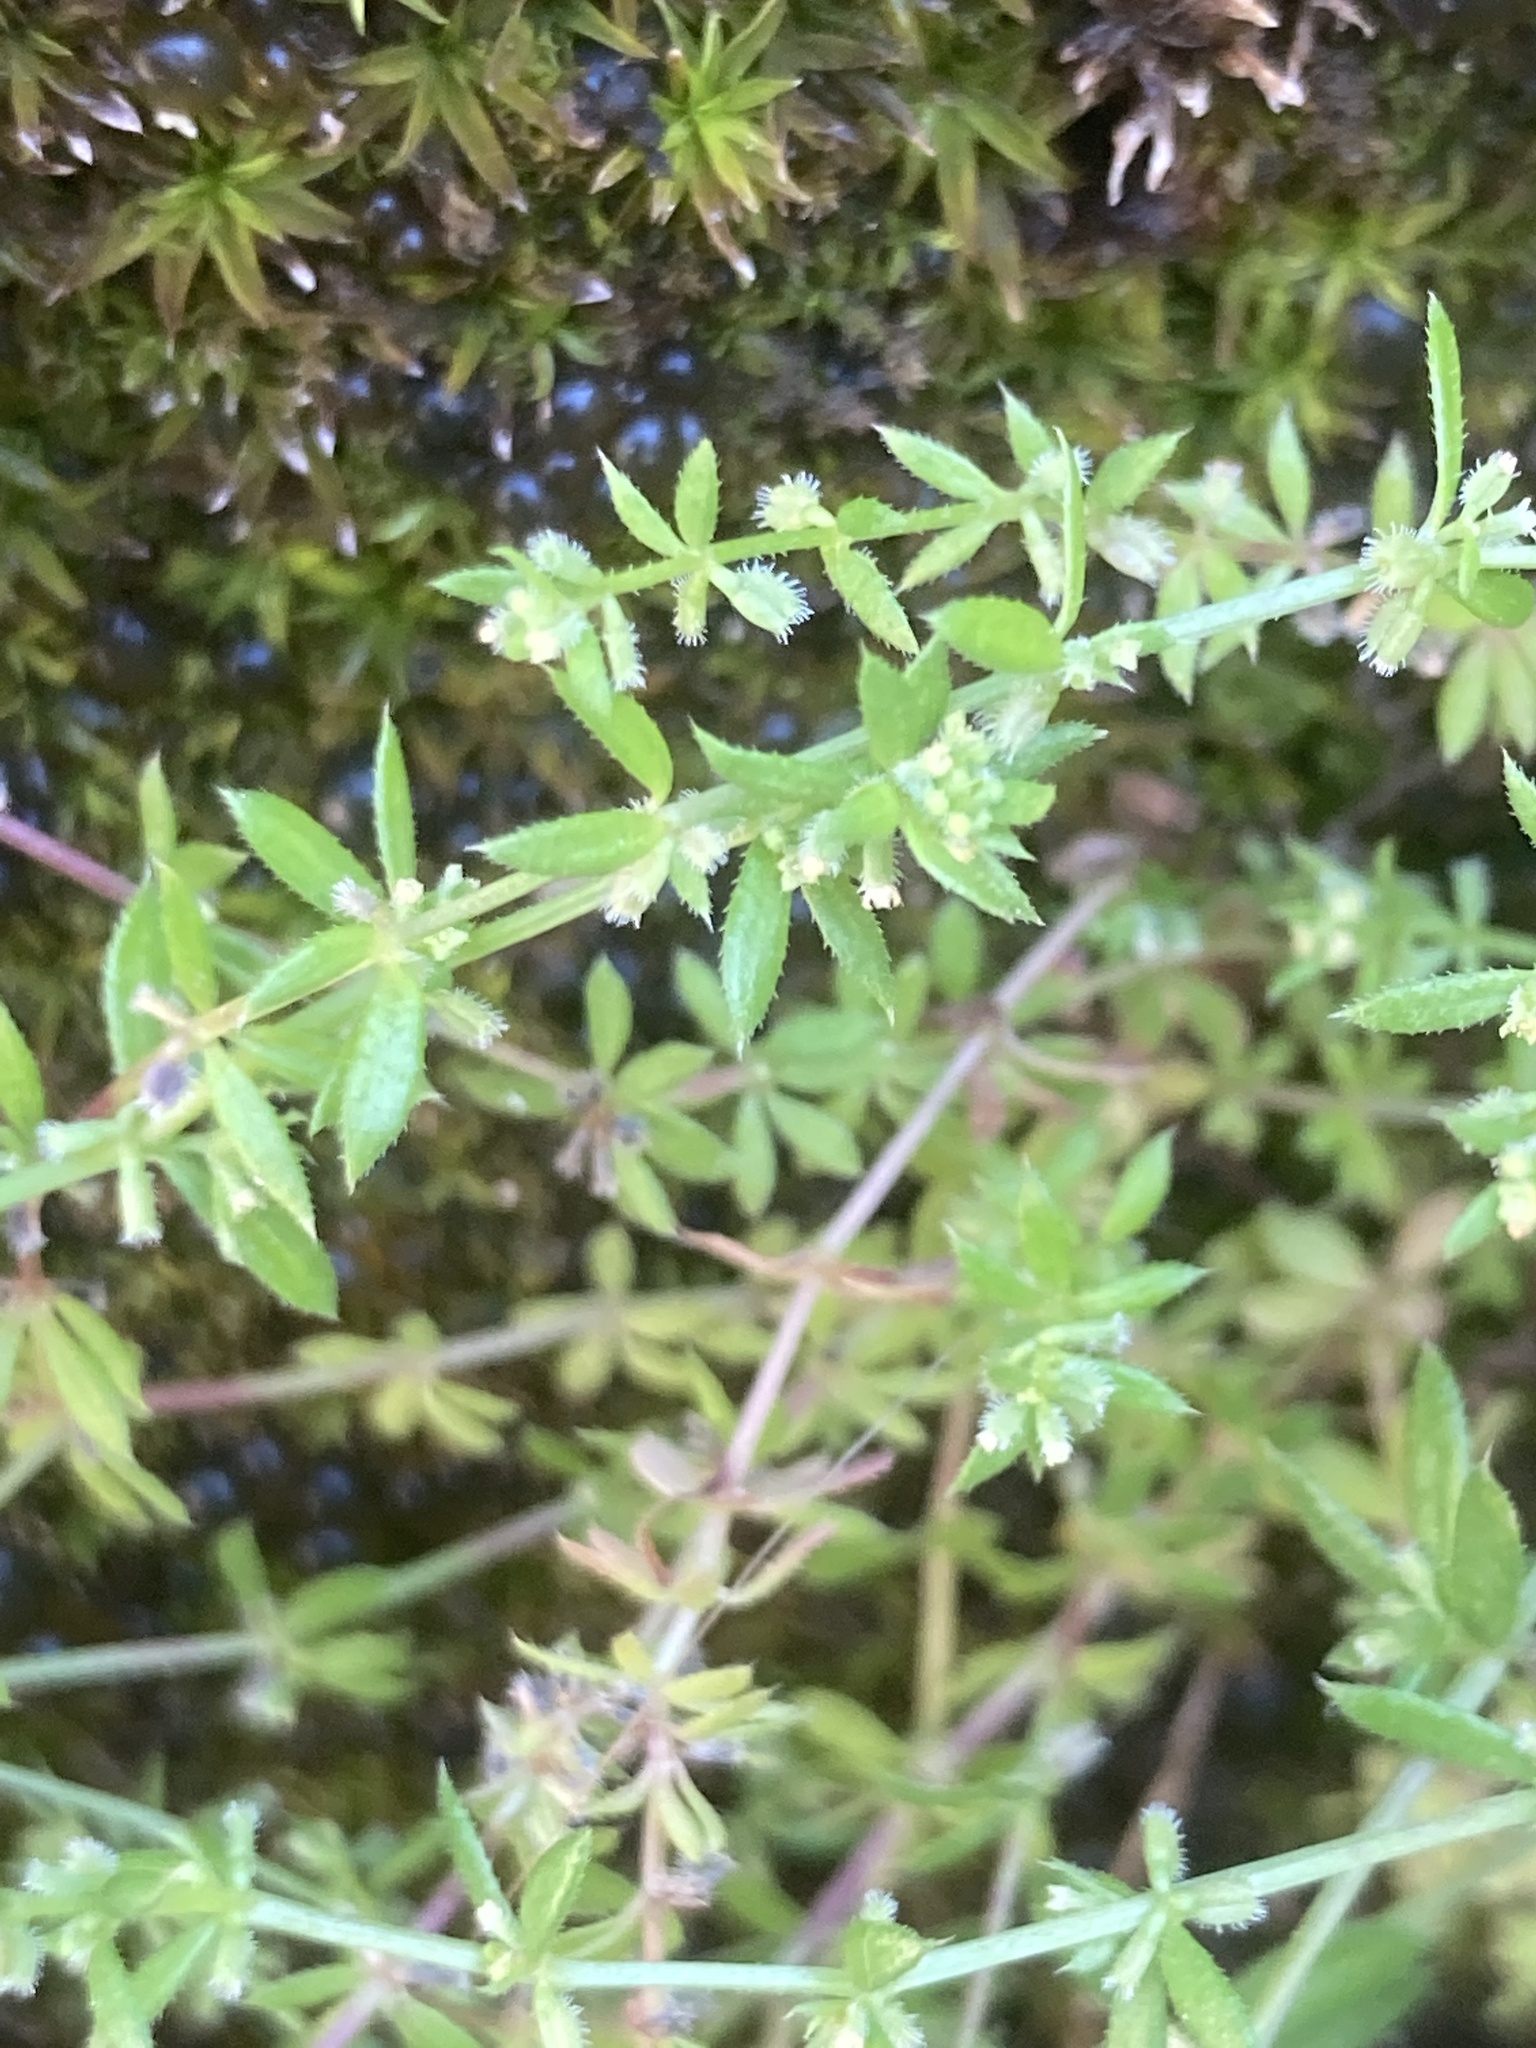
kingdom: Plantae
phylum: Tracheophyta
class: Magnoliopsida
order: Gentianales
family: Rubiaceae
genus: Galium
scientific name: Galium murale
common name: Yellow wall bedstraw
